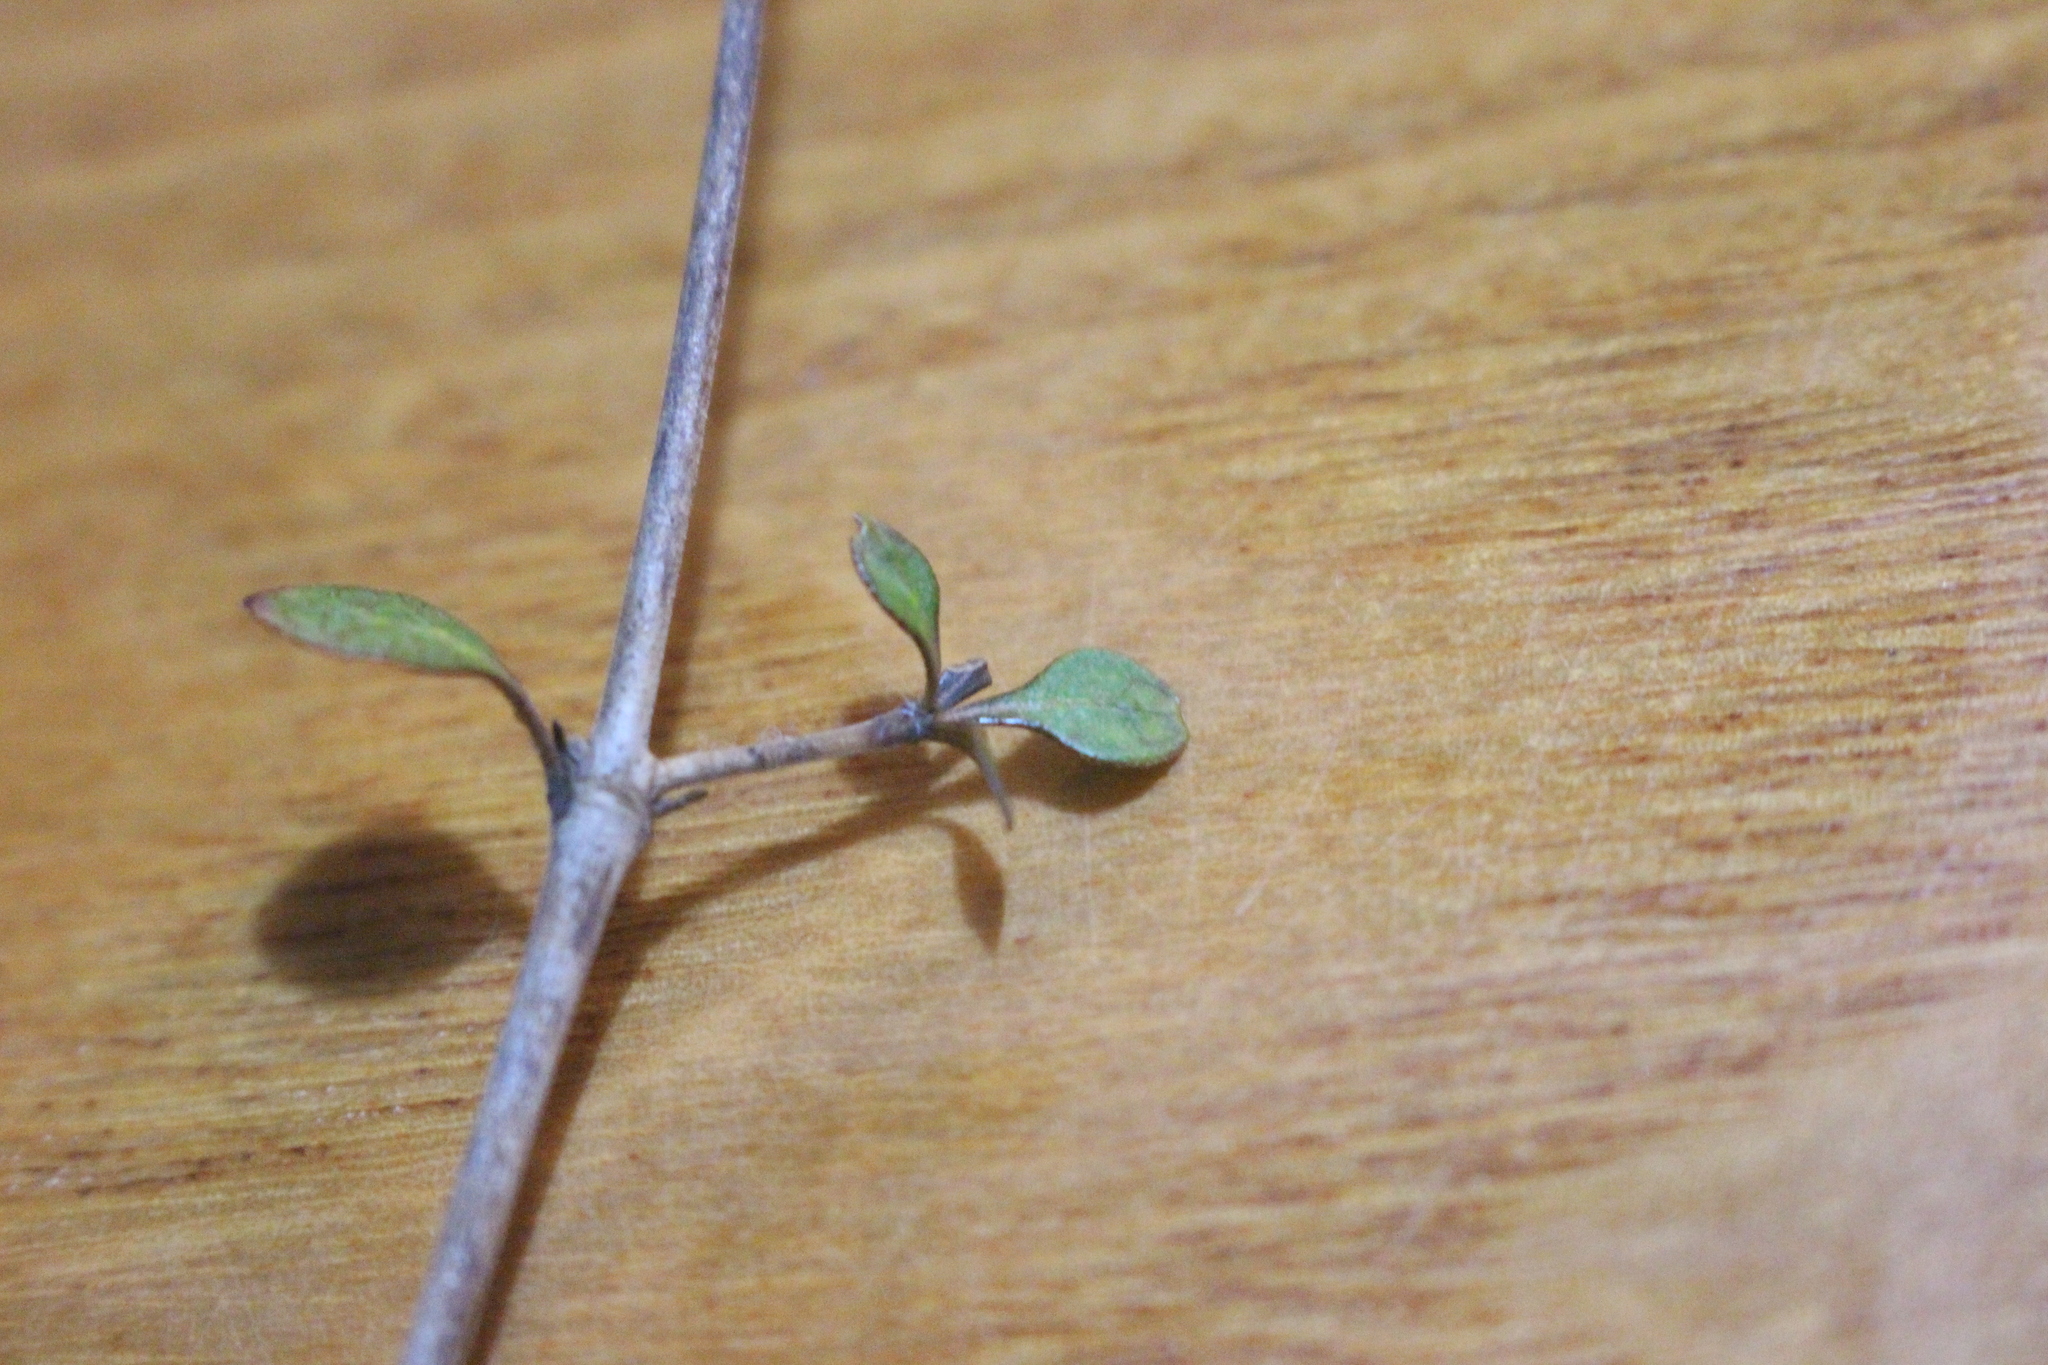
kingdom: Plantae
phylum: Tracheophyta
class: Magnoliopsida
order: Gentianales
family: Rubiaceae
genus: Coprosma
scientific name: Coprosma tenuicaulis
